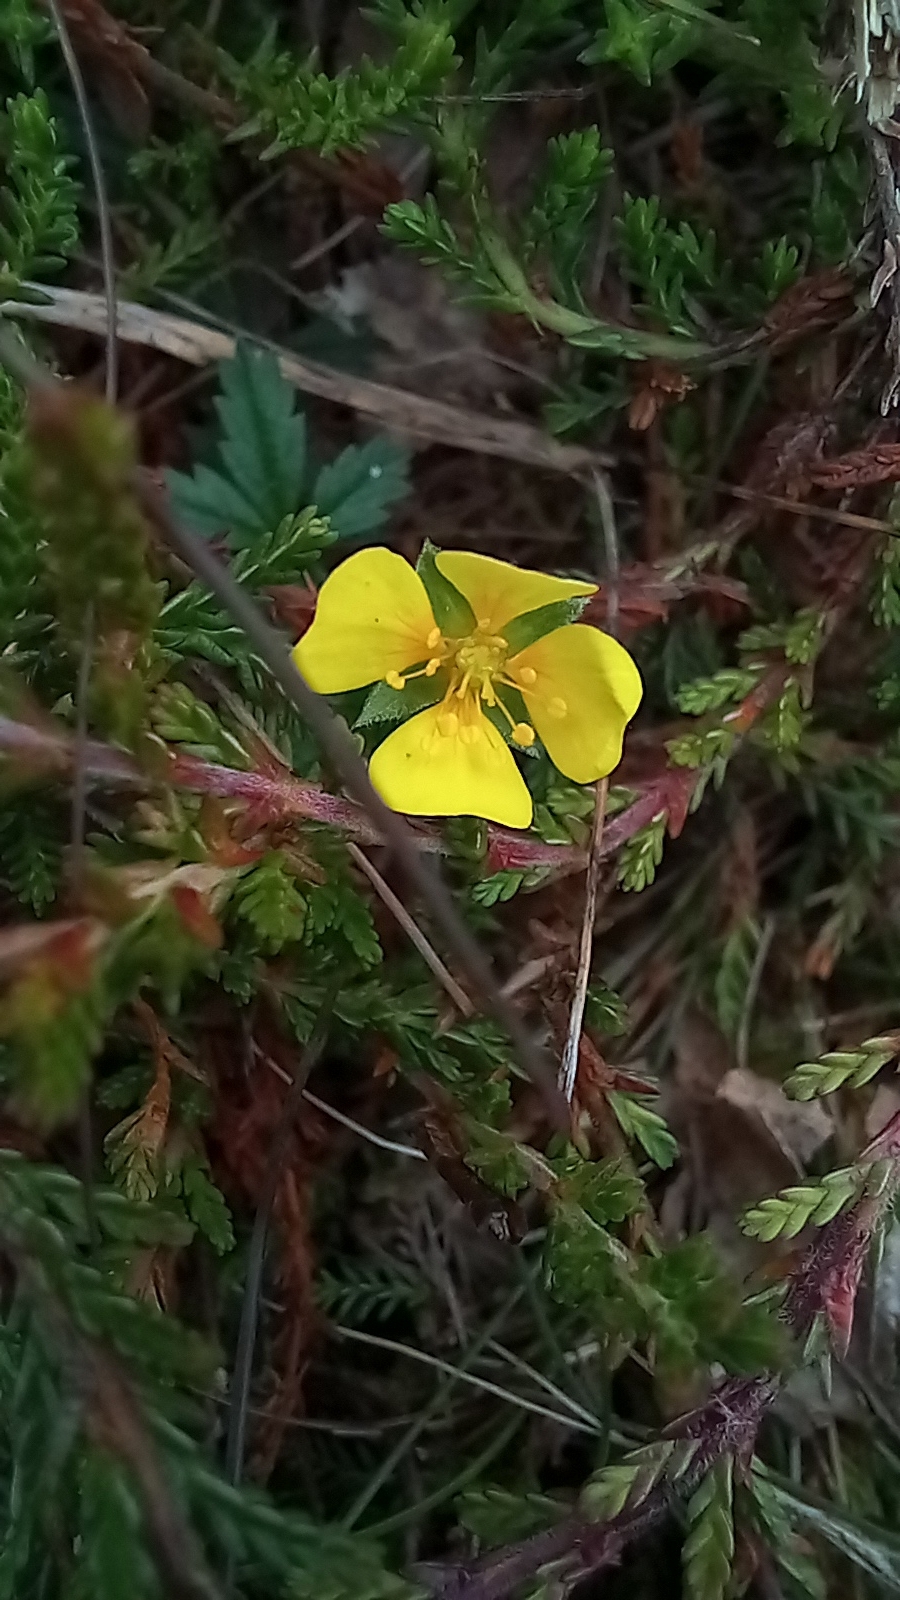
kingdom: Plantae
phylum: Tracheophyta
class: Magnoliopsida
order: Rosales
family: Rosaceae
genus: Potentilla
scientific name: Potentilla erecta
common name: Tormentil
